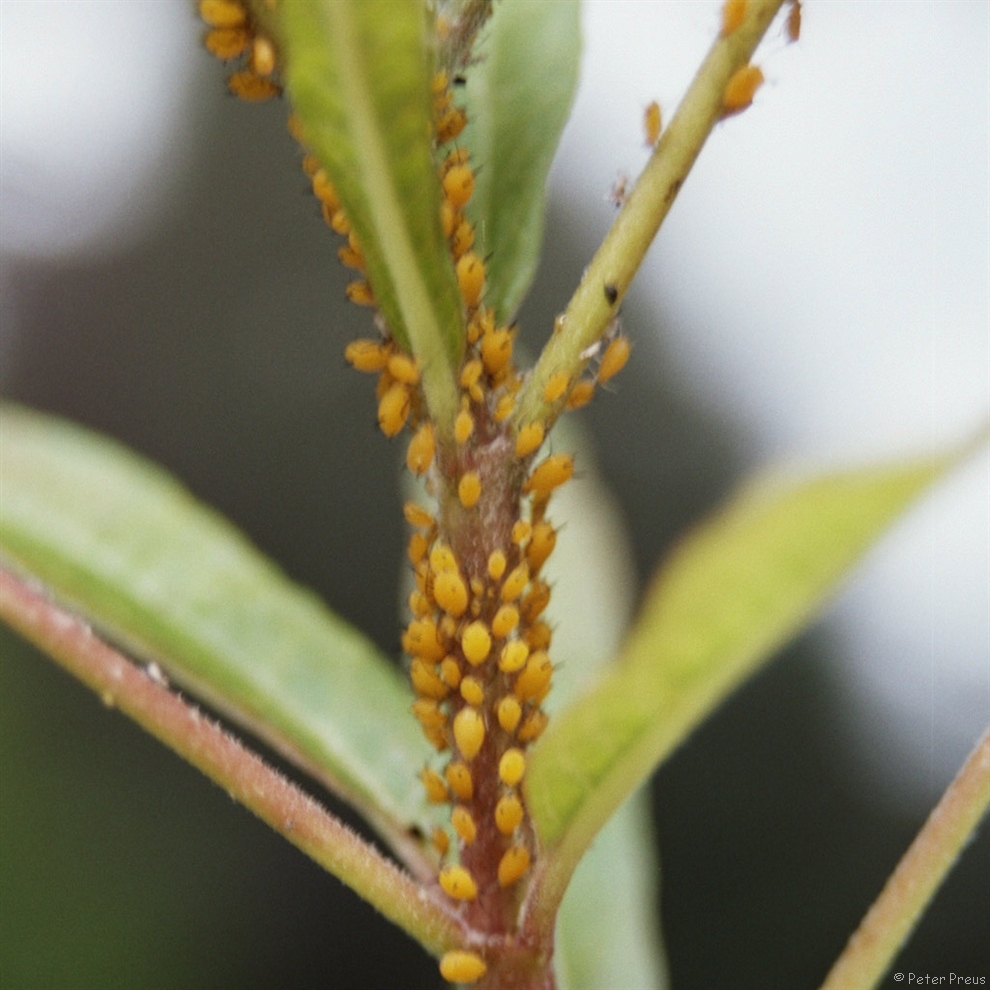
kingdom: Animalia
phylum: Arthropoda
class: Insecta
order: Hemiptera
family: Aphididae
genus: Aphis
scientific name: Aphis nerii
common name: Oleander aphid
